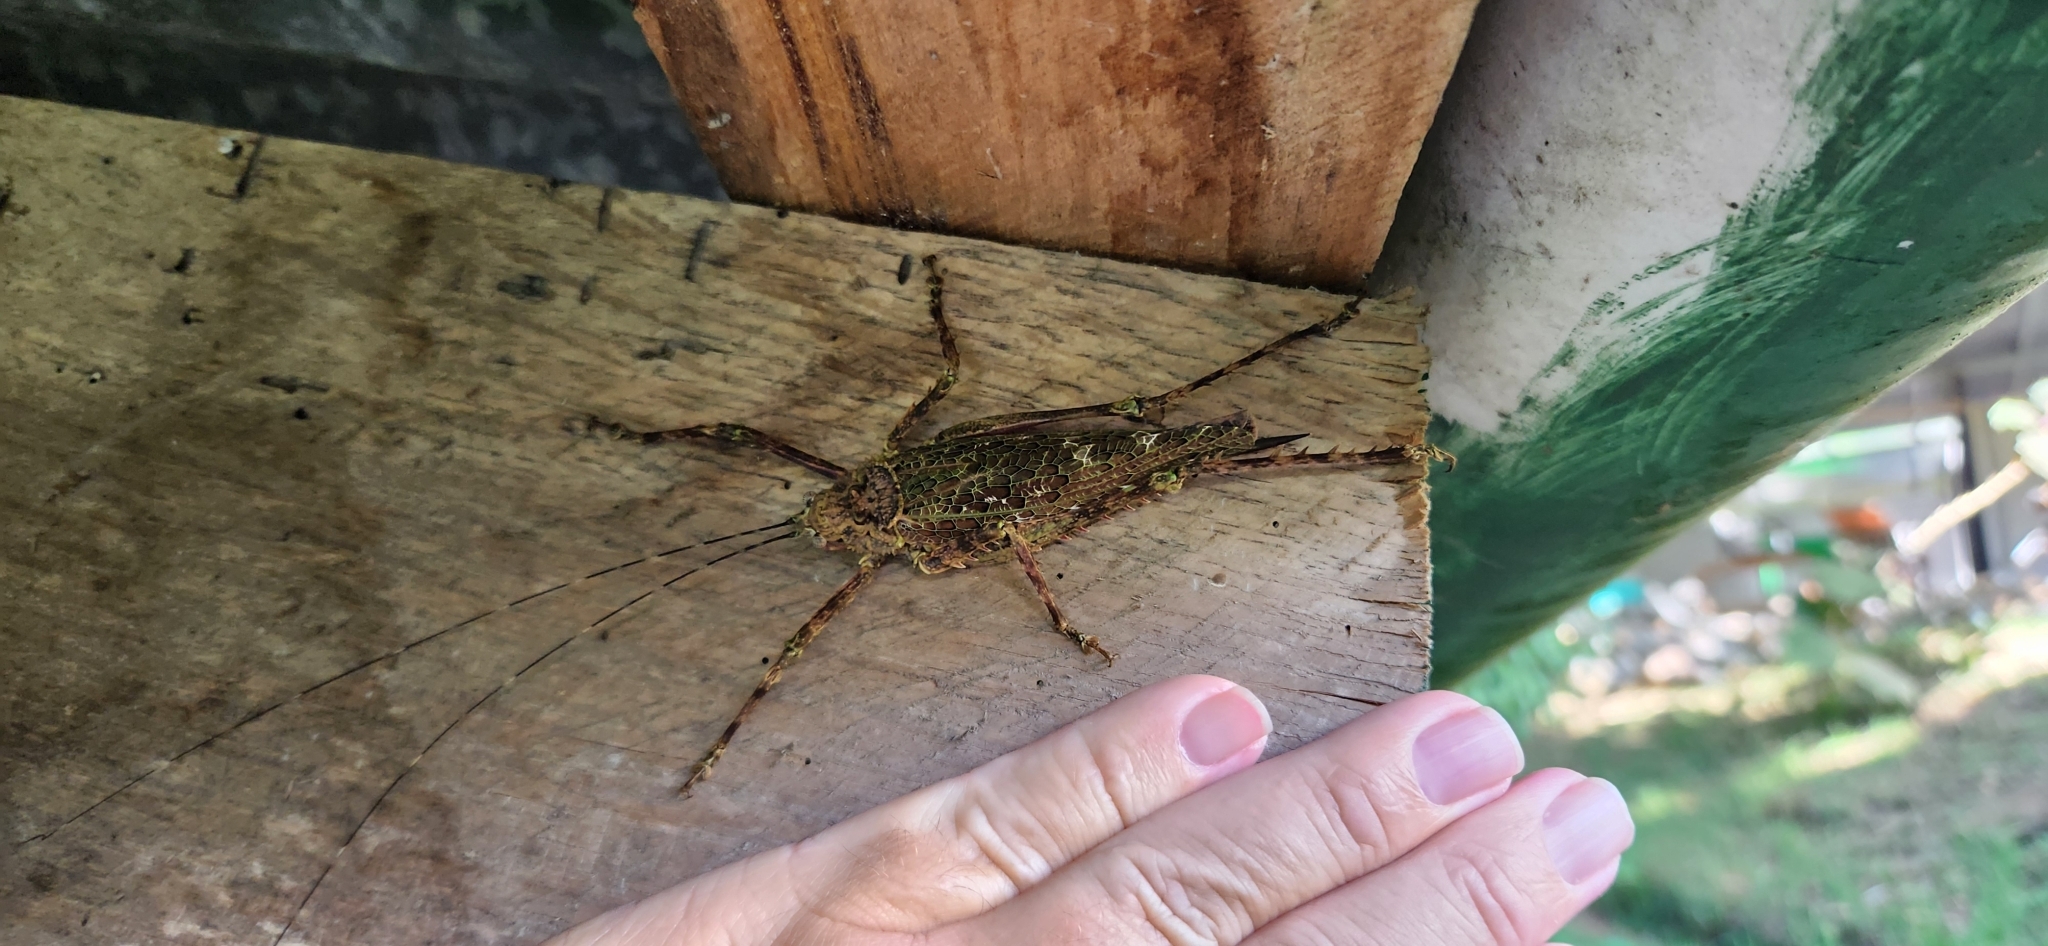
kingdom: Animalia
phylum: Arthropoda
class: Insecta
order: Orthoptera
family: Tettigoniidae
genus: Haemodiasma
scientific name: Haemodiasma tessellata
